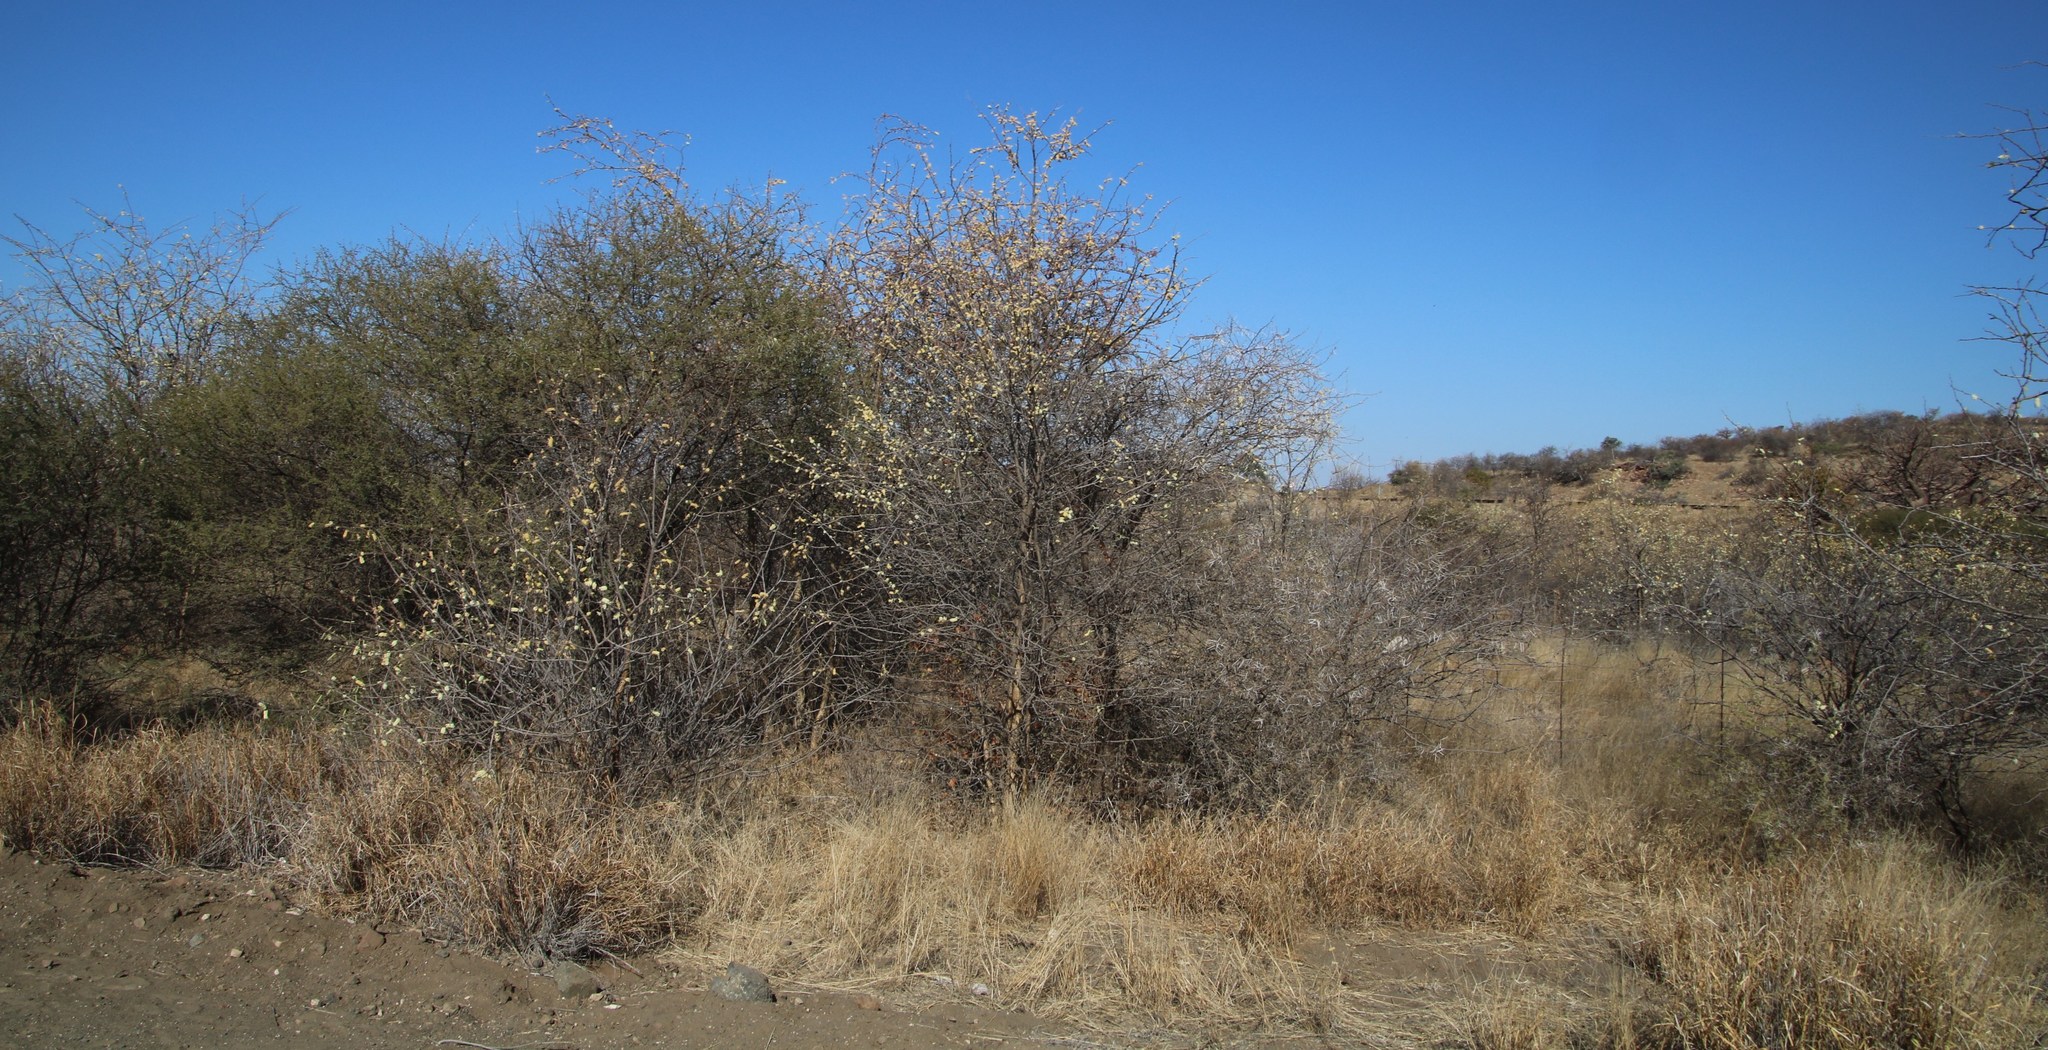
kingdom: Plantae
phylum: Tracheophyta
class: Magnoliopsida
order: Fabales
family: Fabaceae
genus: Senegalia
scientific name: Senegalia senegal
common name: Senegal-gum
